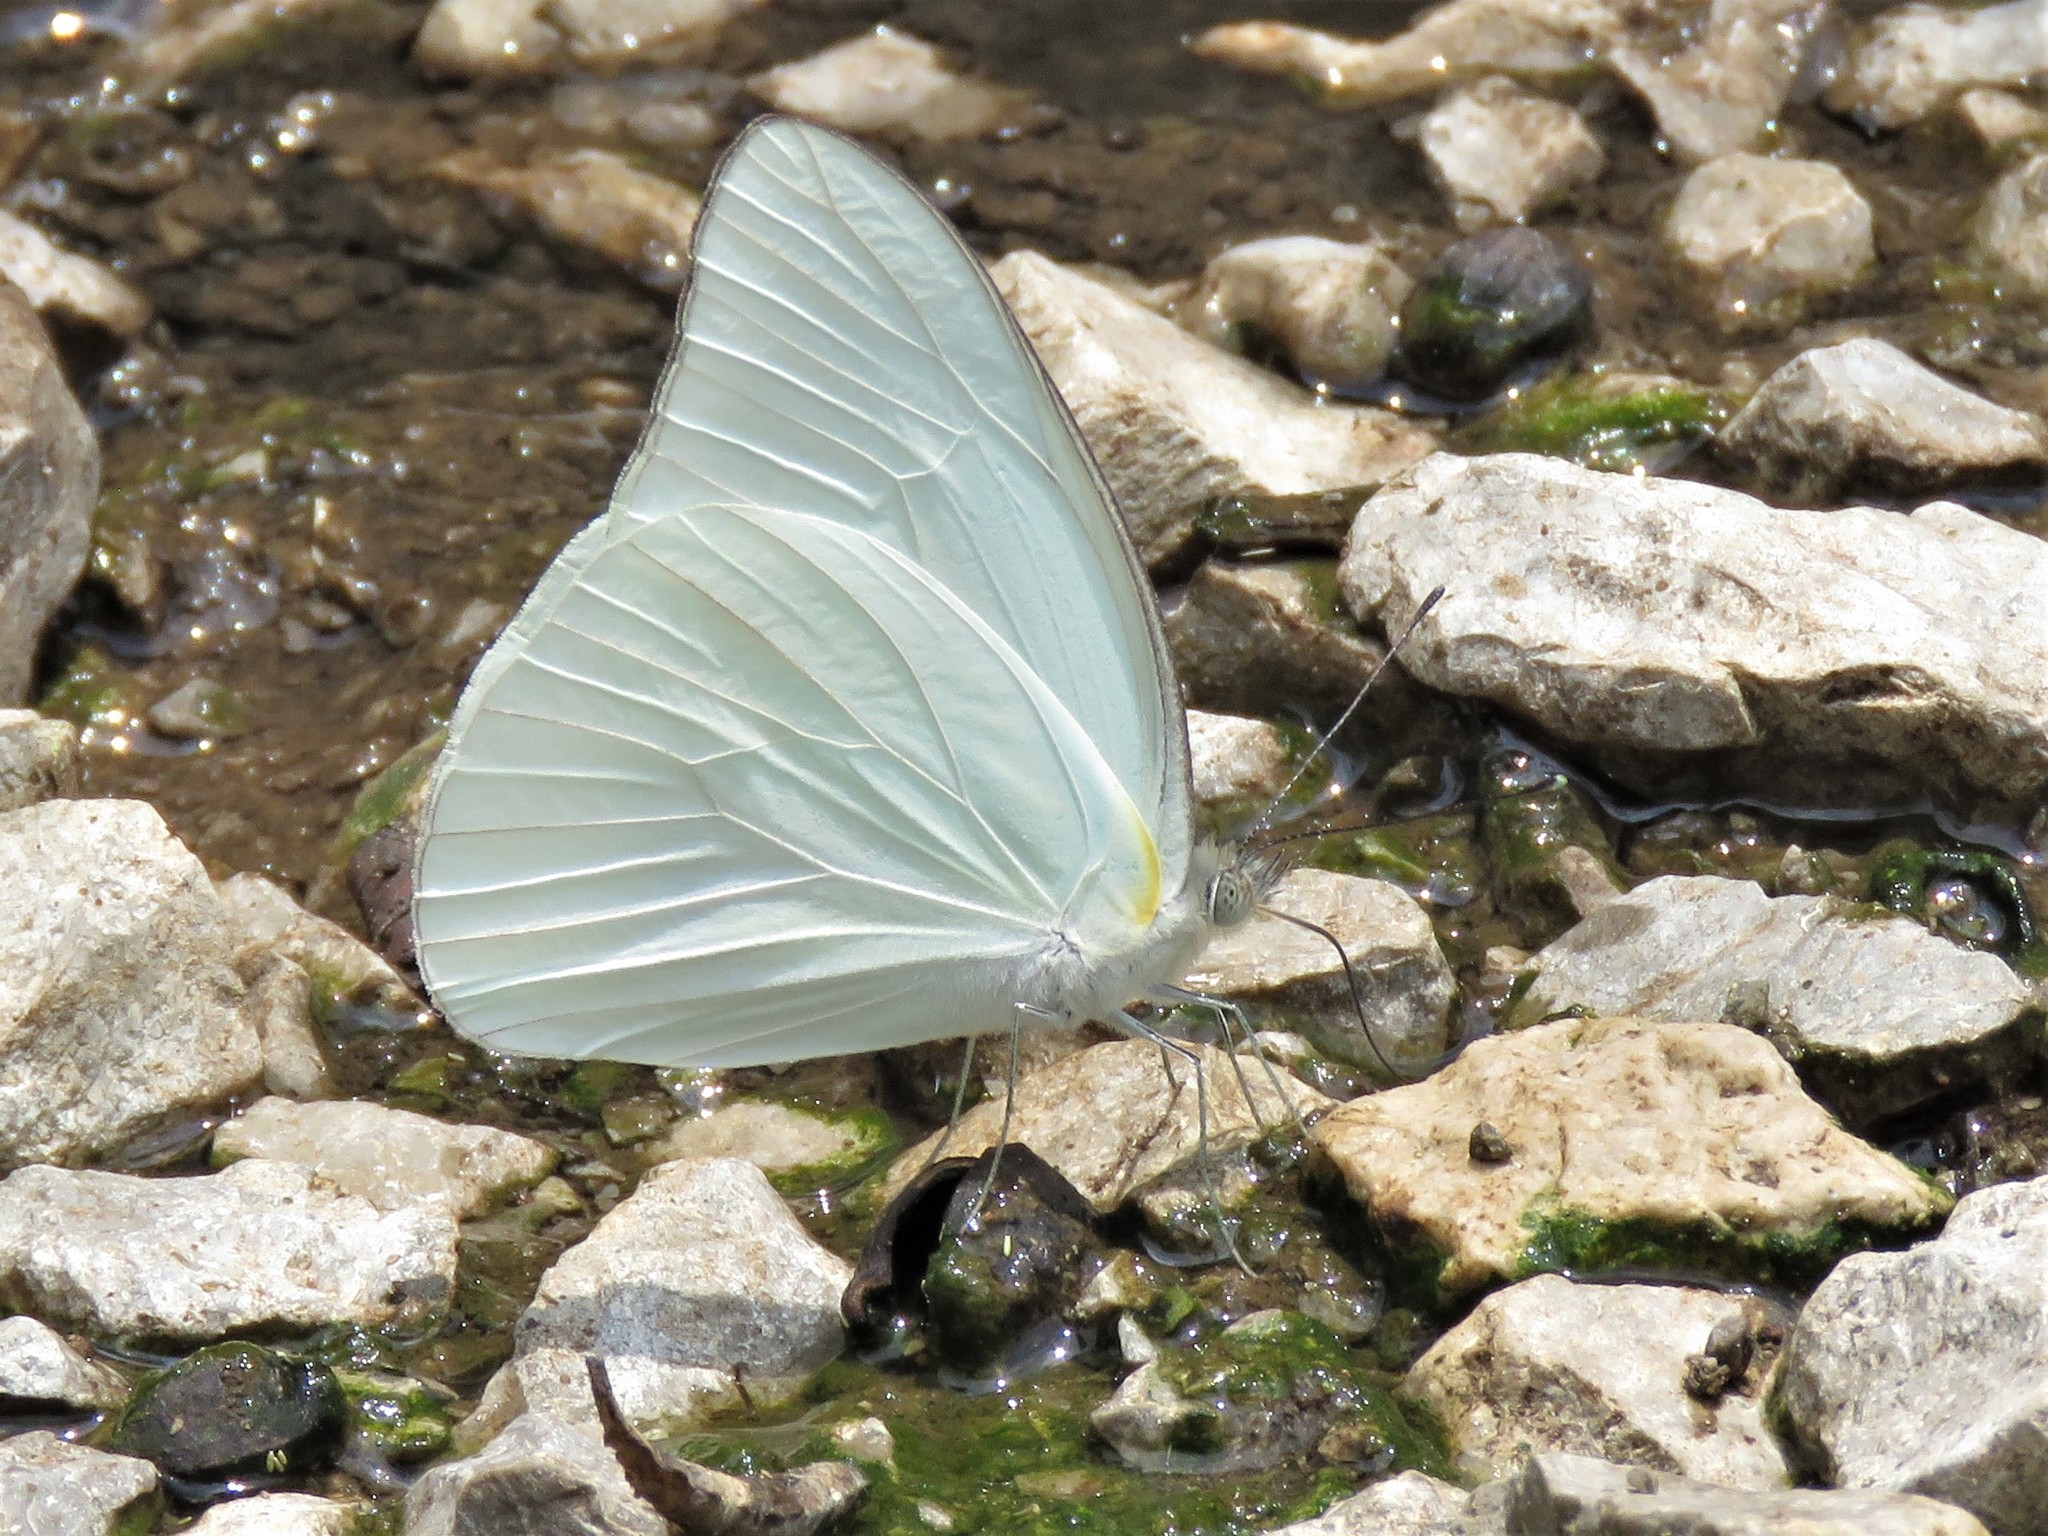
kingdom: Animalia
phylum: Arthropoda
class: Insecta
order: Lepidoptera
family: Pieridae
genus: Glutophrissa
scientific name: Glutophrissa drusilla
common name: Florida white
